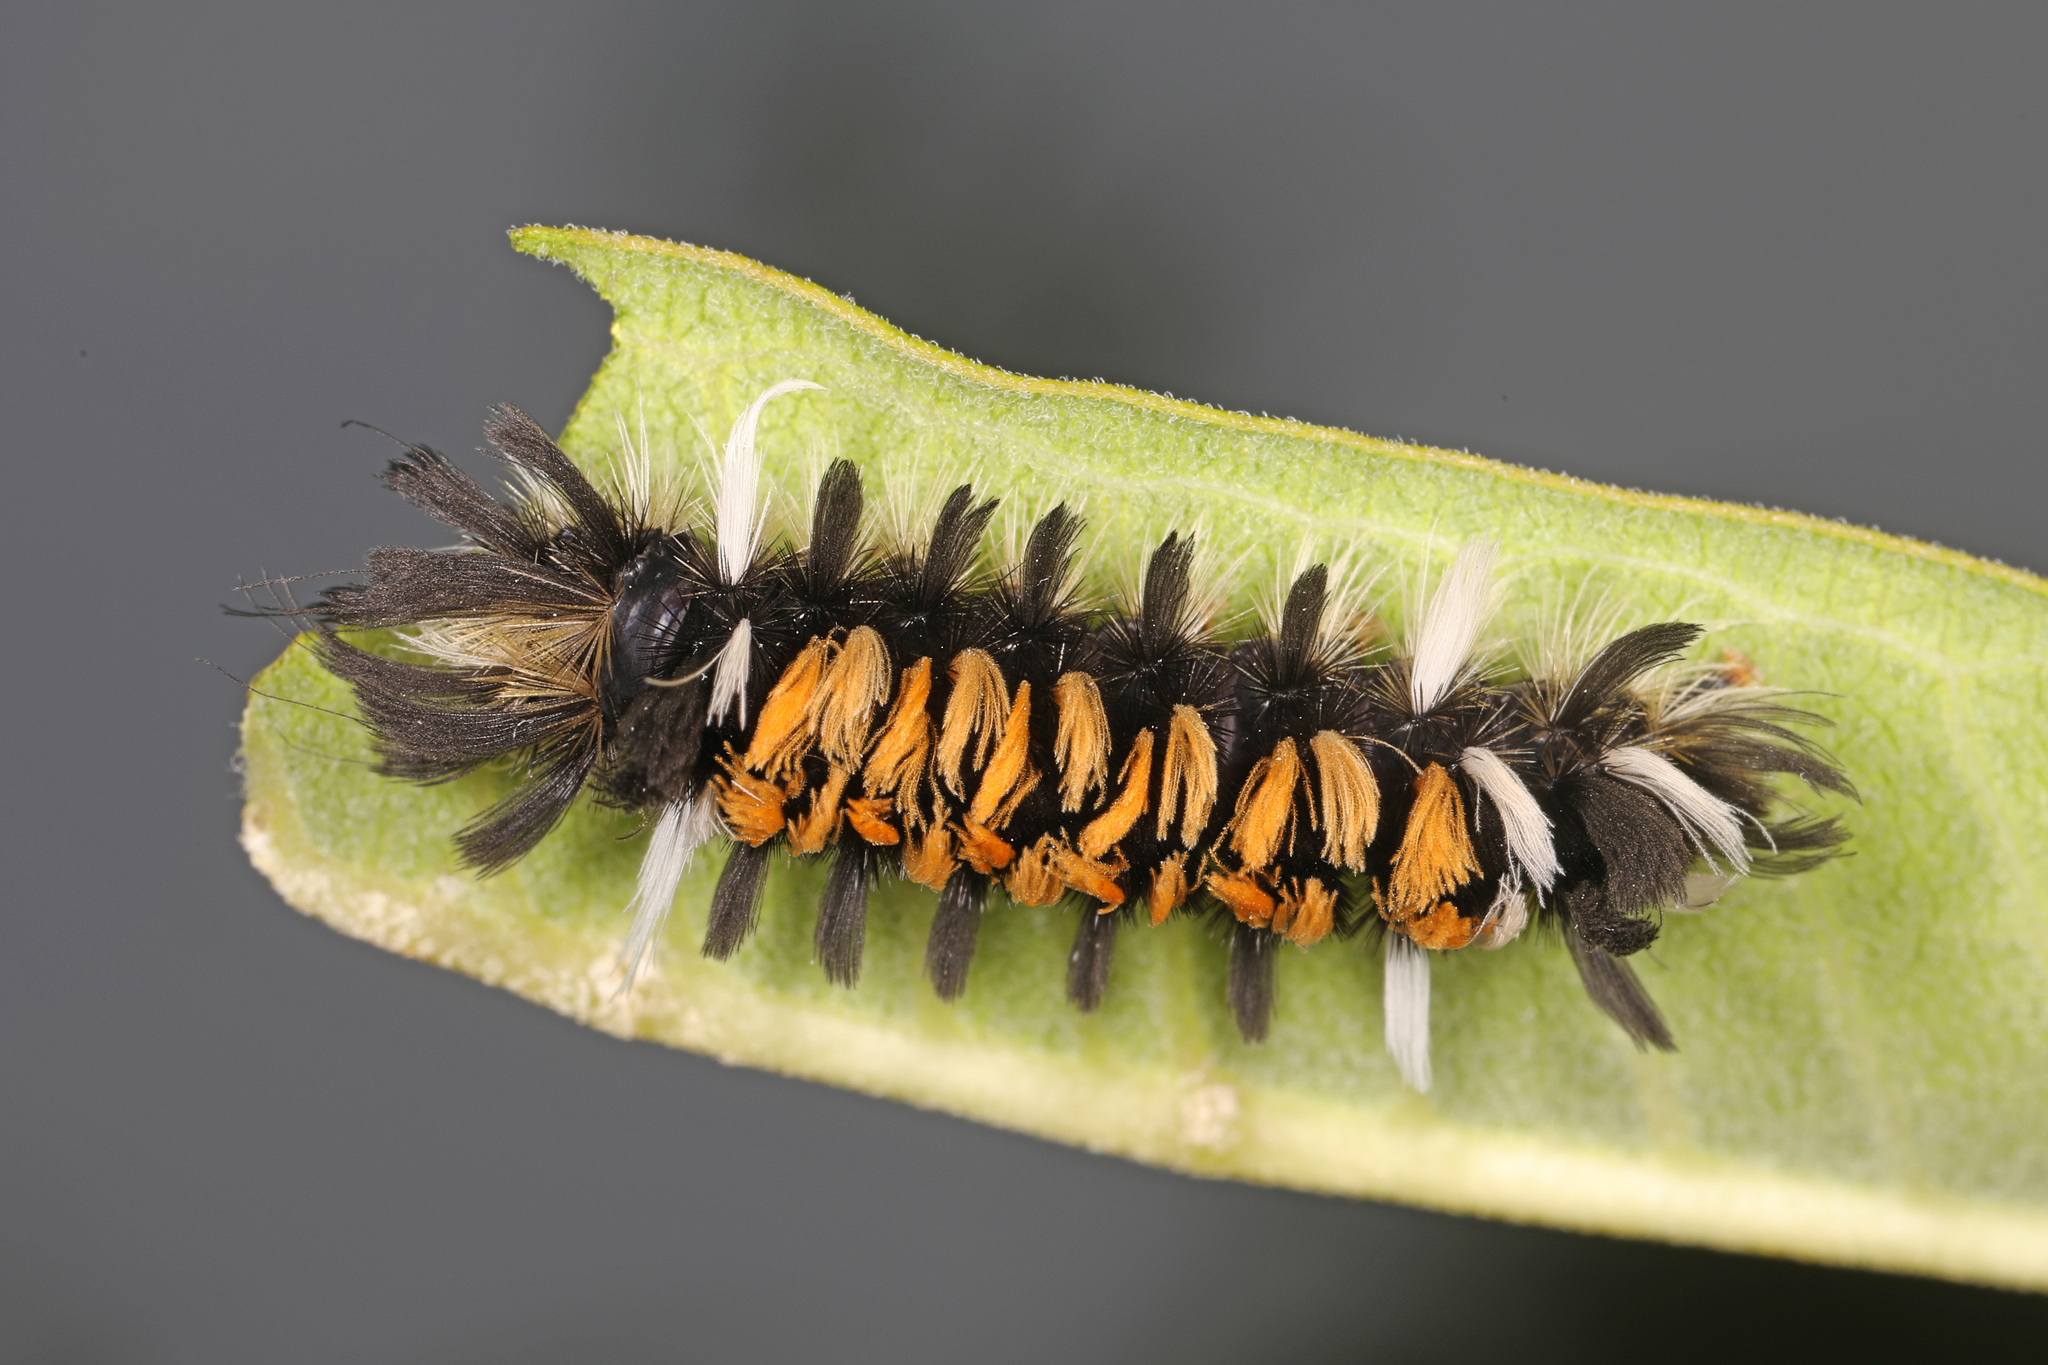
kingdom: Animalia
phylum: Arthropoda
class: Insecta
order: Lepidoptera
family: Erebidae
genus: Euchaetes
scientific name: Euchaetes egle
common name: Milkweed tussock moth
